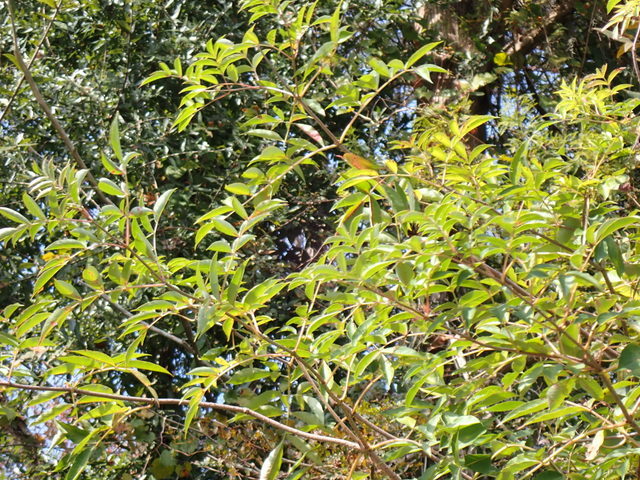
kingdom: Plantae
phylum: Tracheophyta
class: Magnoliopsida
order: Dipsacales
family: Viburnaceae
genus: Sambucus
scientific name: Sambucus canadensis
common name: American elder
